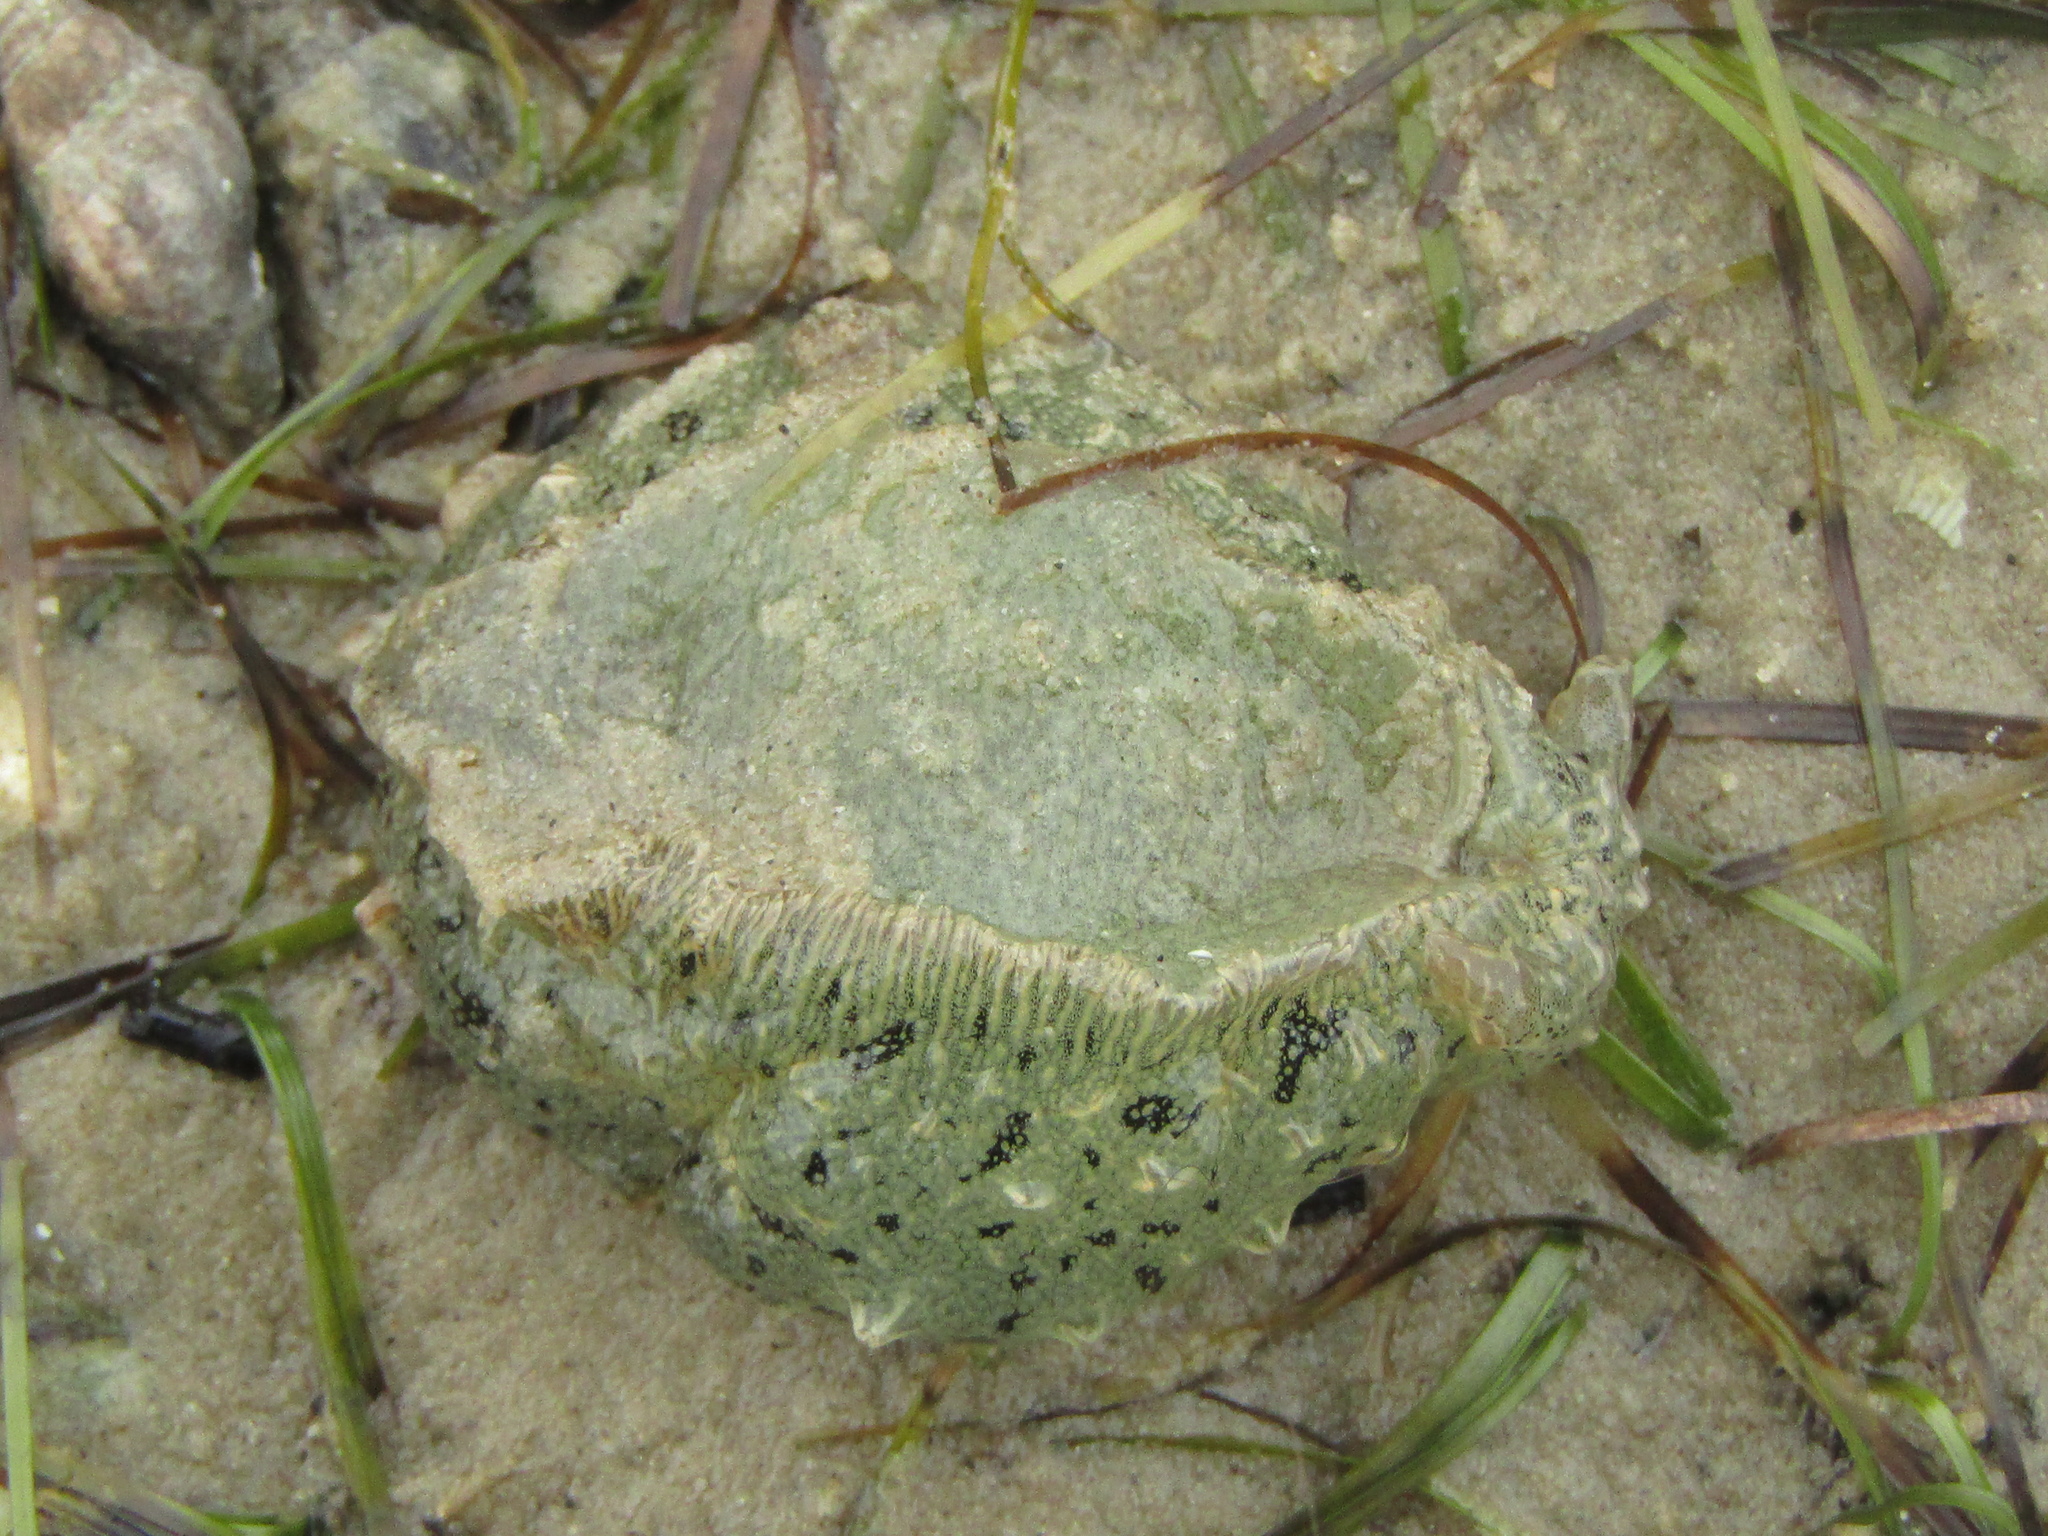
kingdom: Animalia
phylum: Mollusca
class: Gastropoda
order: Aplysiida
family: Aplysiidae
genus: Bursatella
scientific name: Bursatella leachii
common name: Shaggy sea hare
